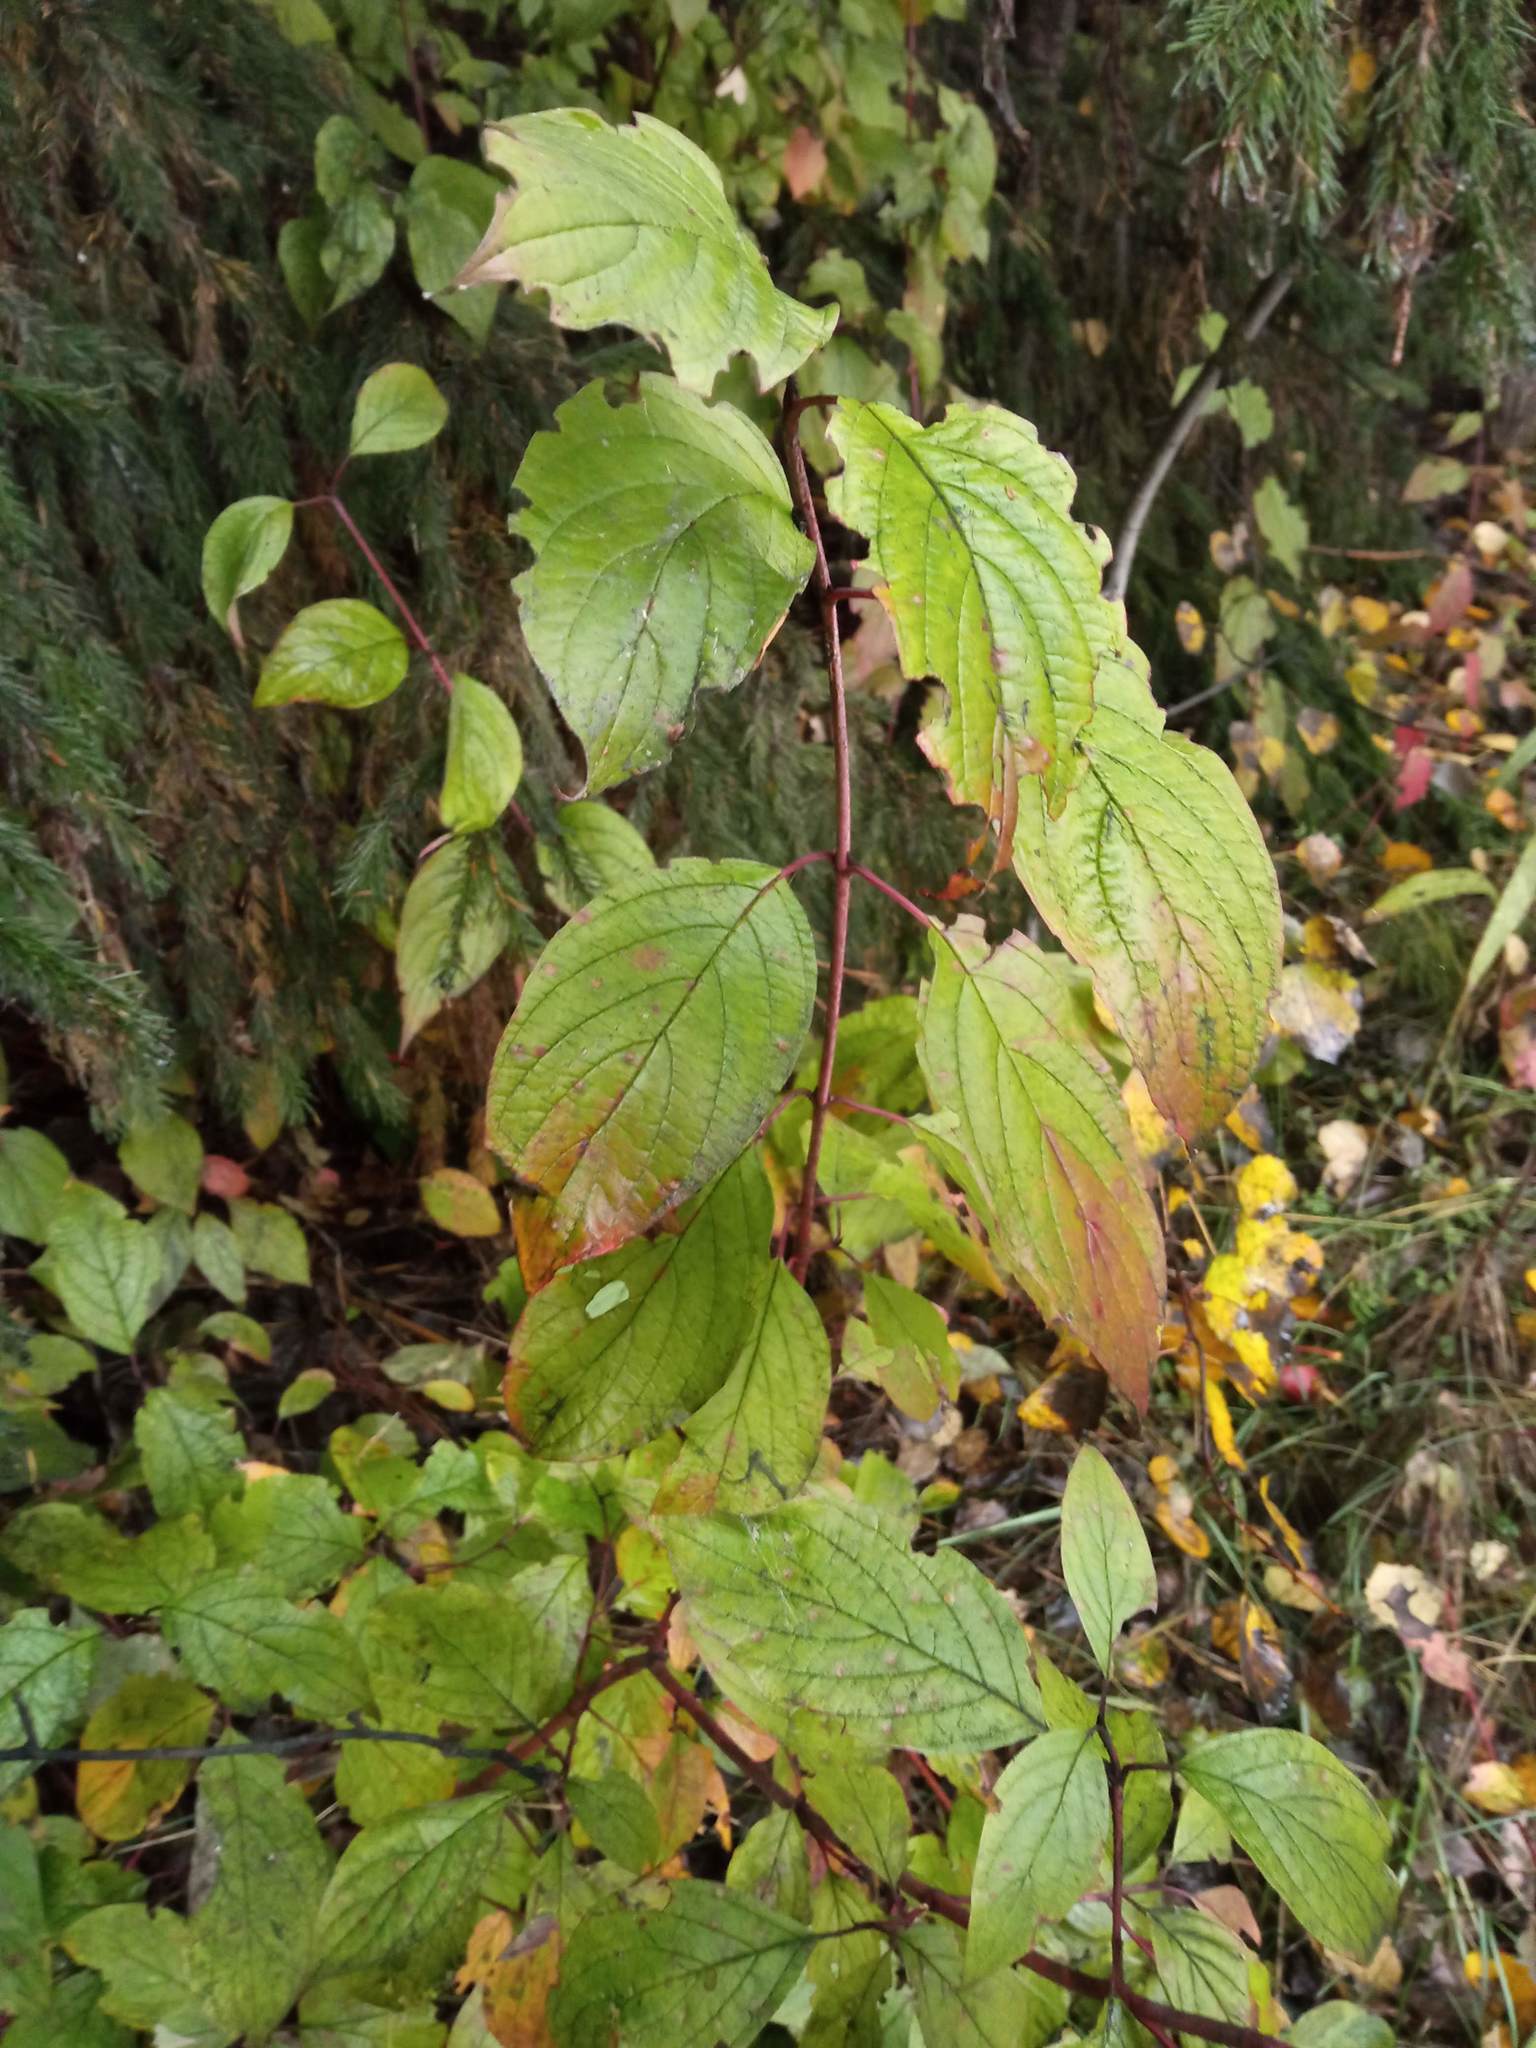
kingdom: Plantae
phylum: Tracheophyta
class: Magnoliopsida
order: Cornales
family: Cornaceae
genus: Cornus
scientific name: Cornus alba
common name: White dogwood
